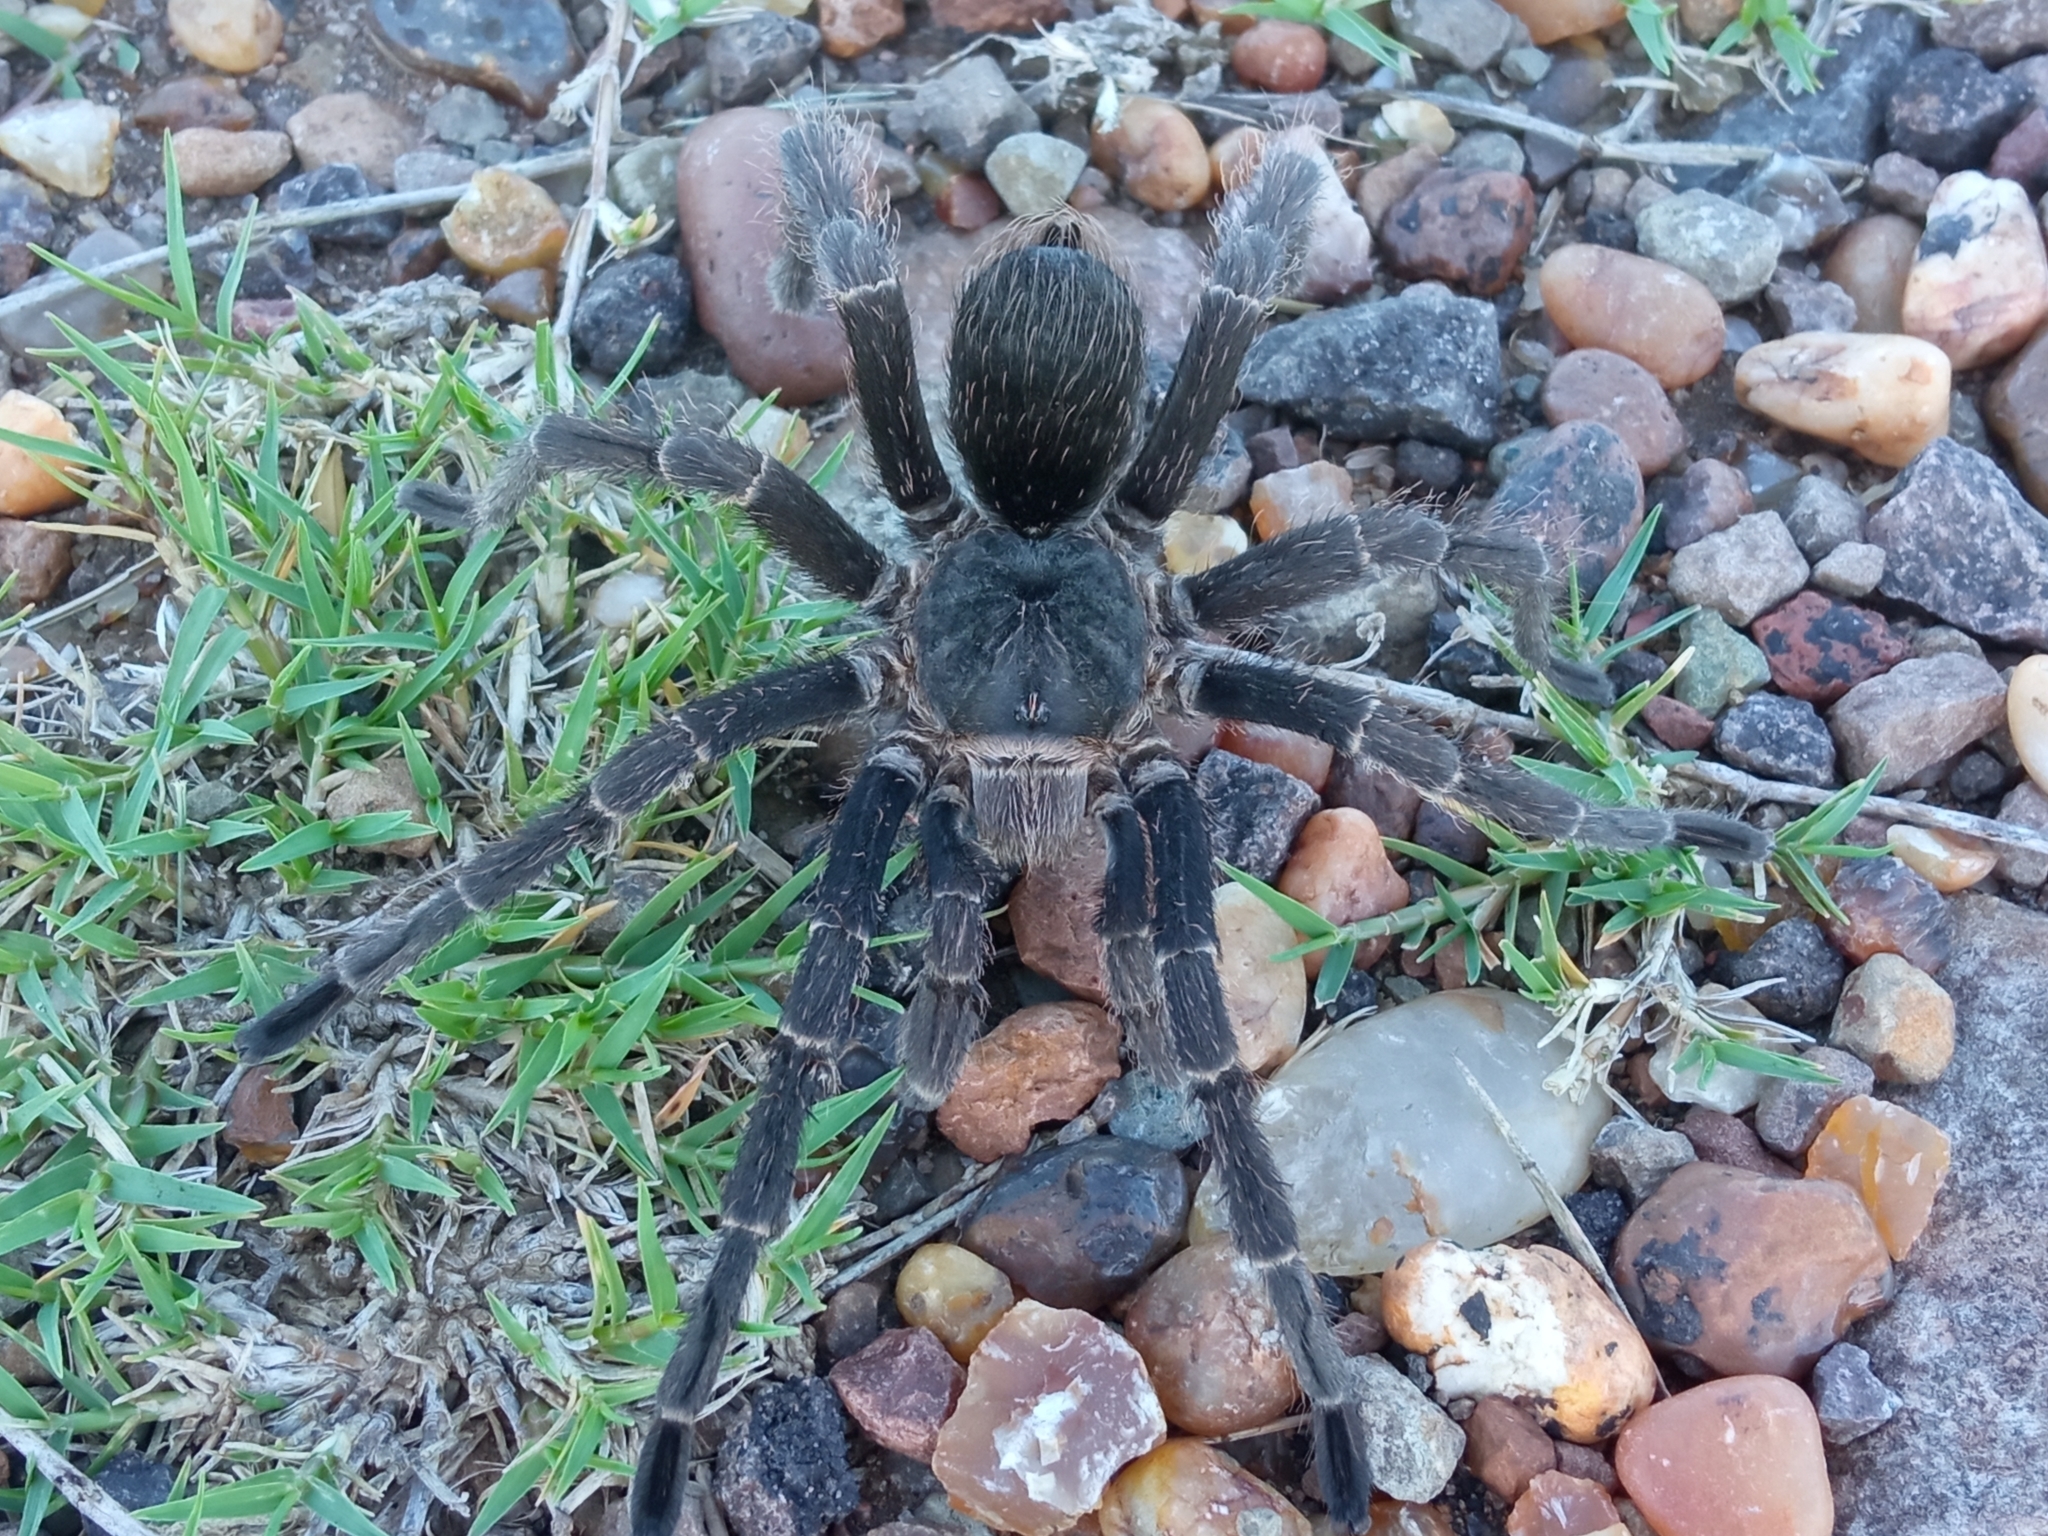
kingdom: Animalia
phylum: Arthropoda
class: Arachnida
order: Araneae
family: Theraphosidae
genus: Eupalaestrus
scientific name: Eupalaestrus weijenberghi
